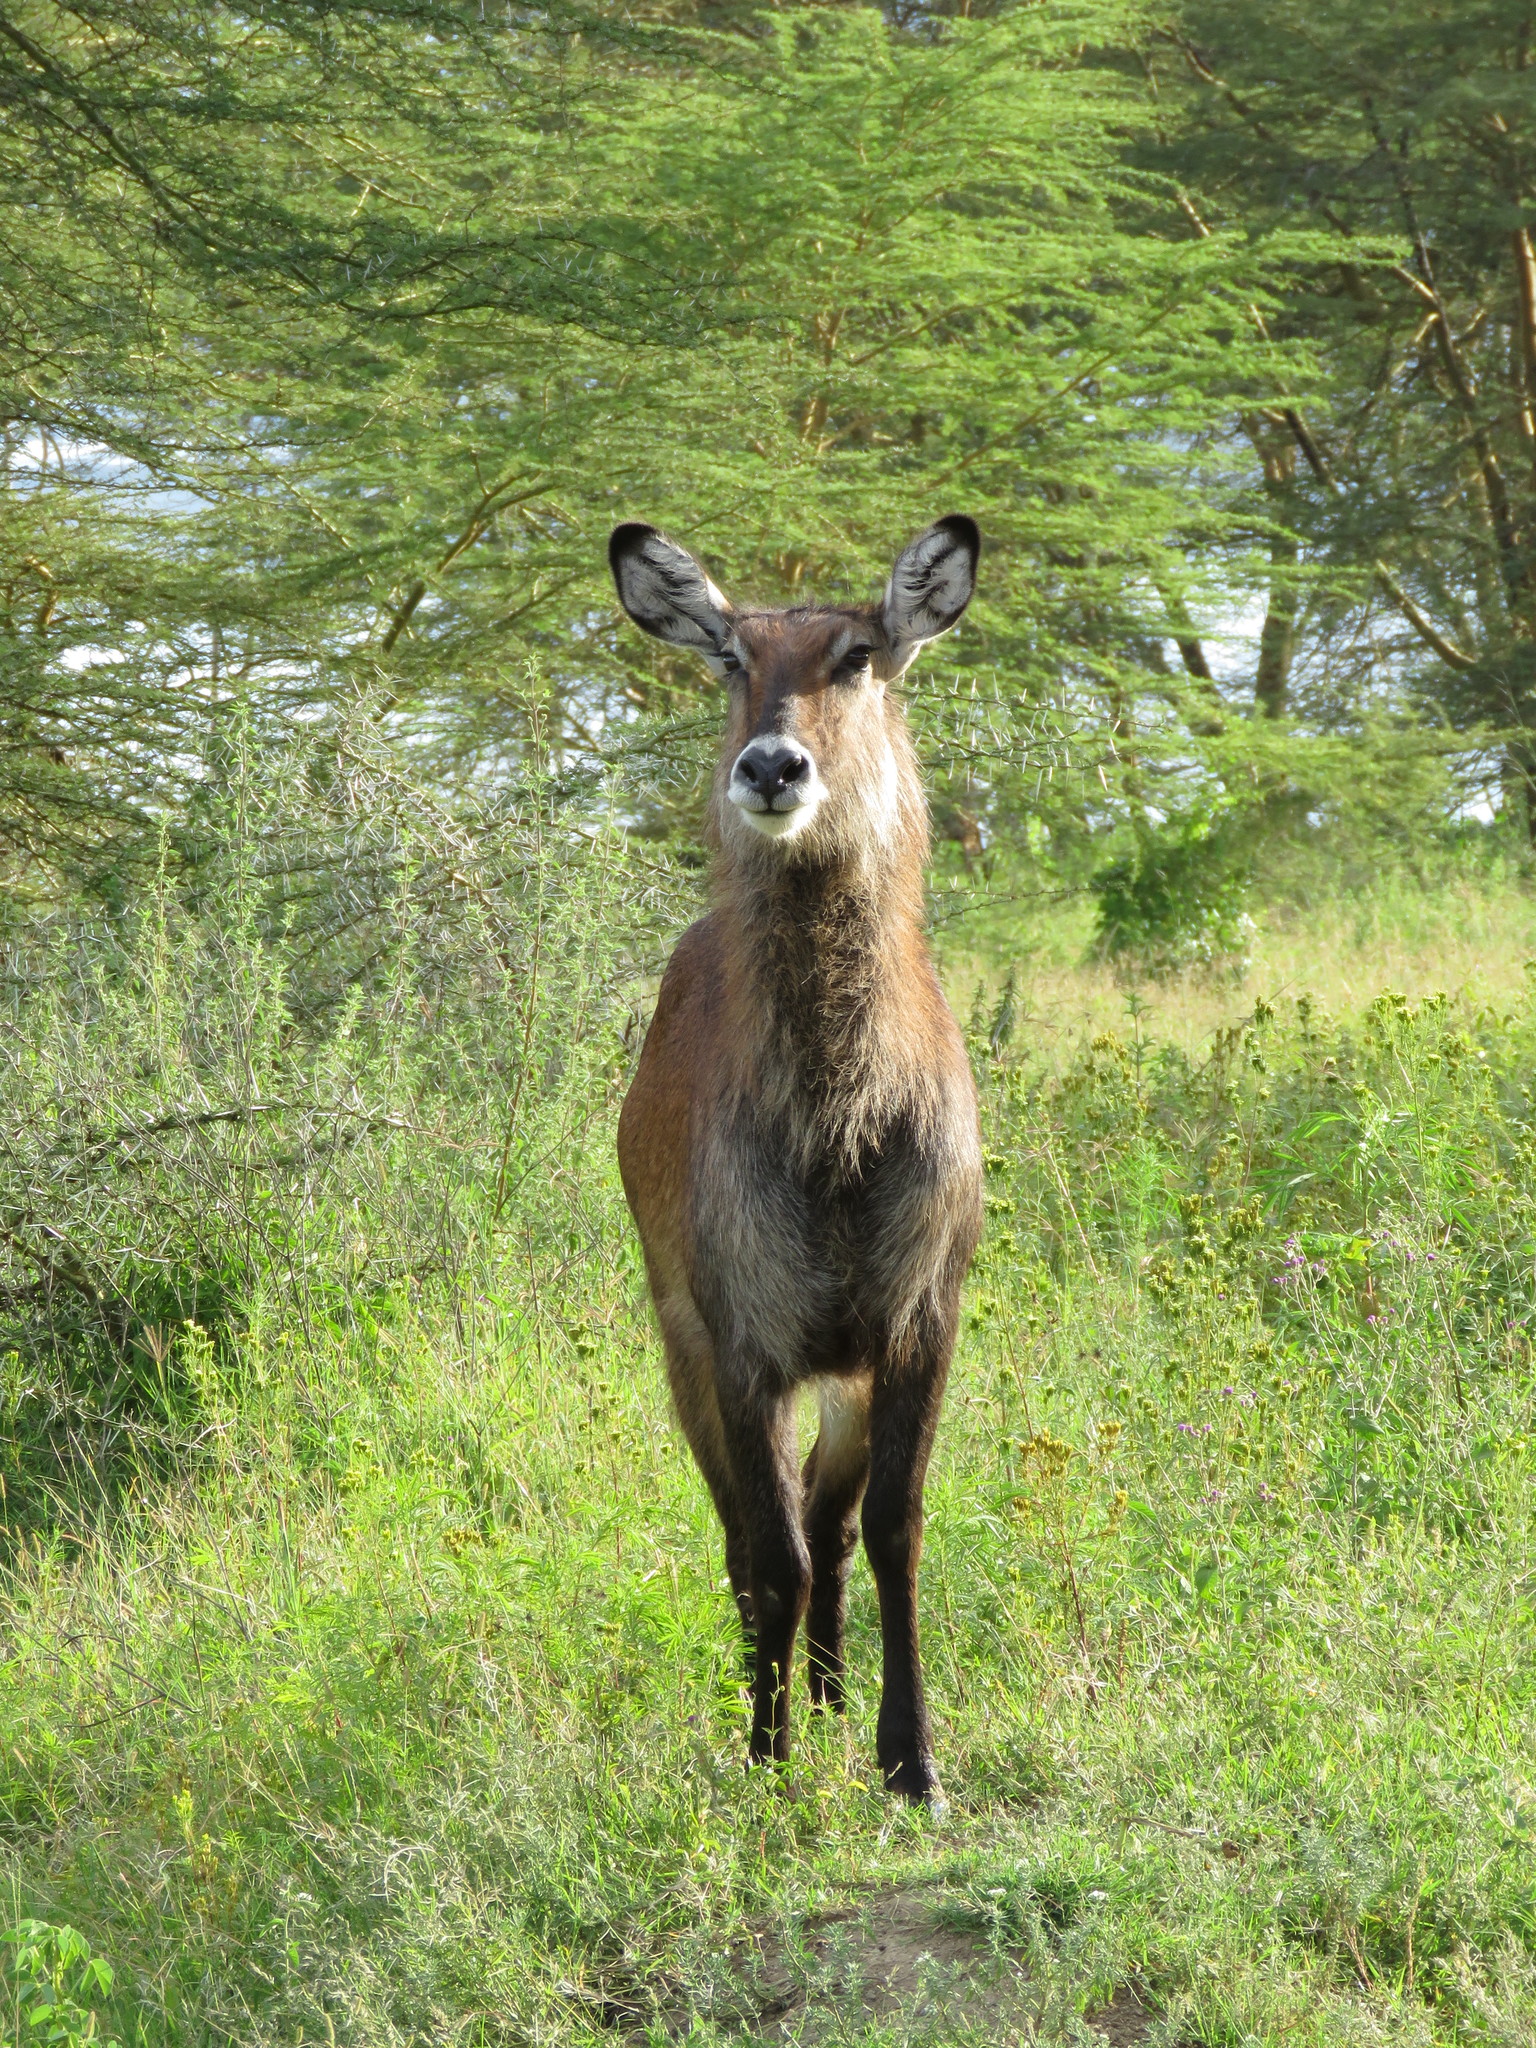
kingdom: Animalia
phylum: Chordata
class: Mammalia
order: Artiodactyla
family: Bovidae
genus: Kobus
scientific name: Kobus ellipsiprymnus
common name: Waterbuck
